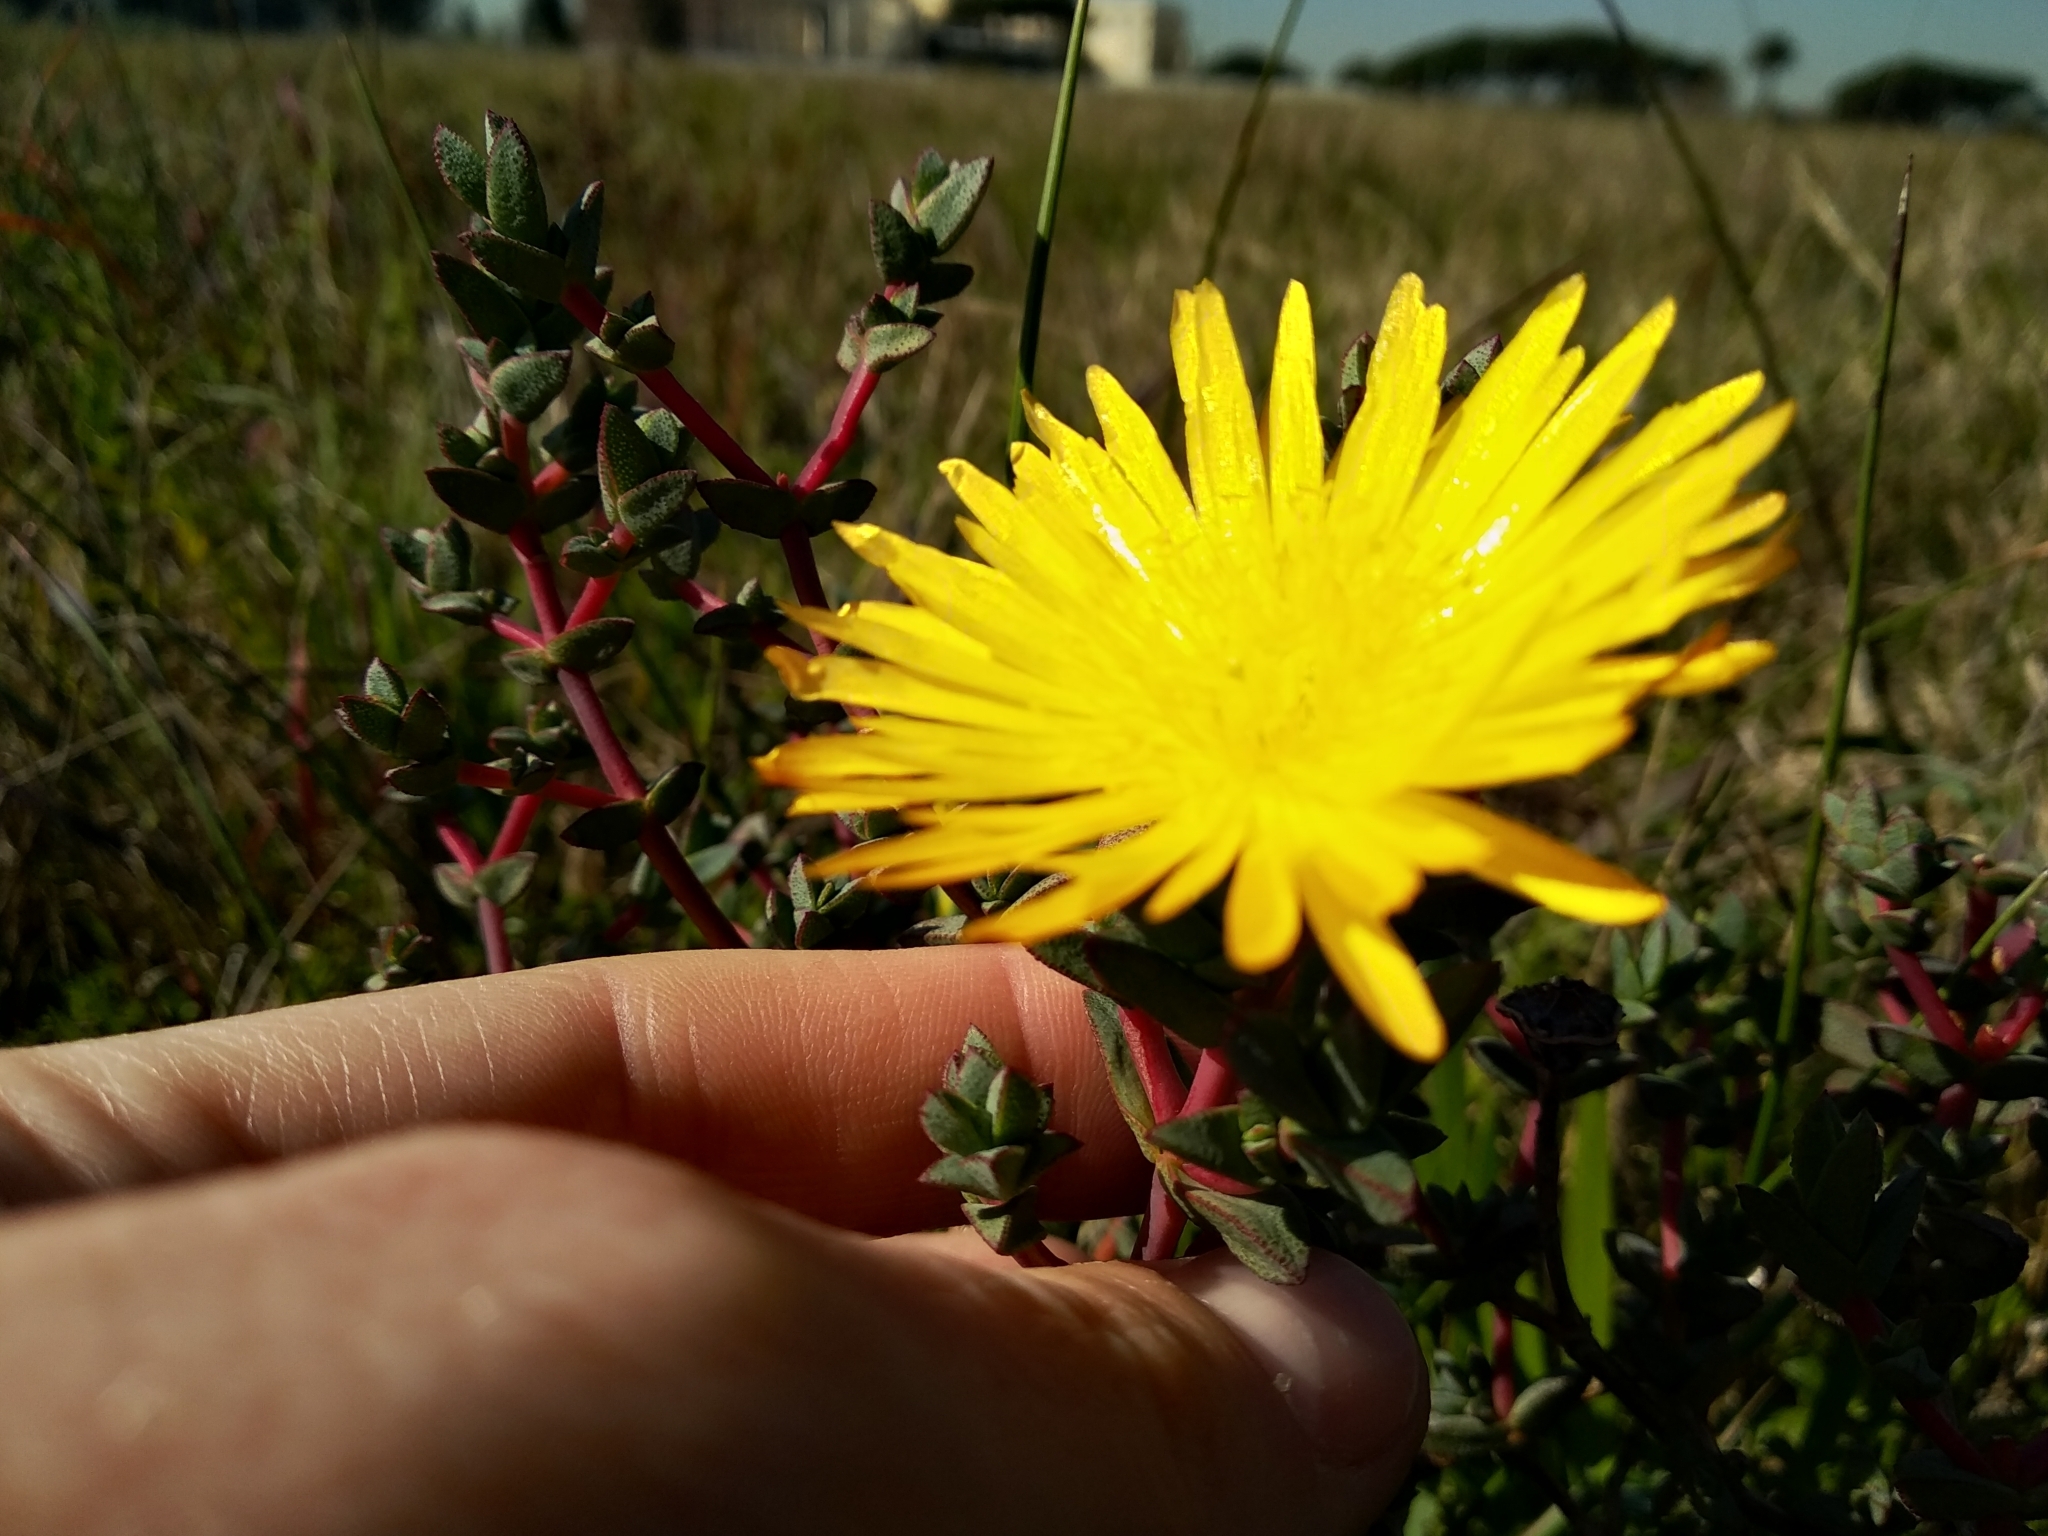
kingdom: Plantae
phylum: Tracheophyta
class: Magnoliopsida
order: Caryophyllales
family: Aizoaceae
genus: Lampranthus
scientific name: Lampranthus glaucus
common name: Noonflower
